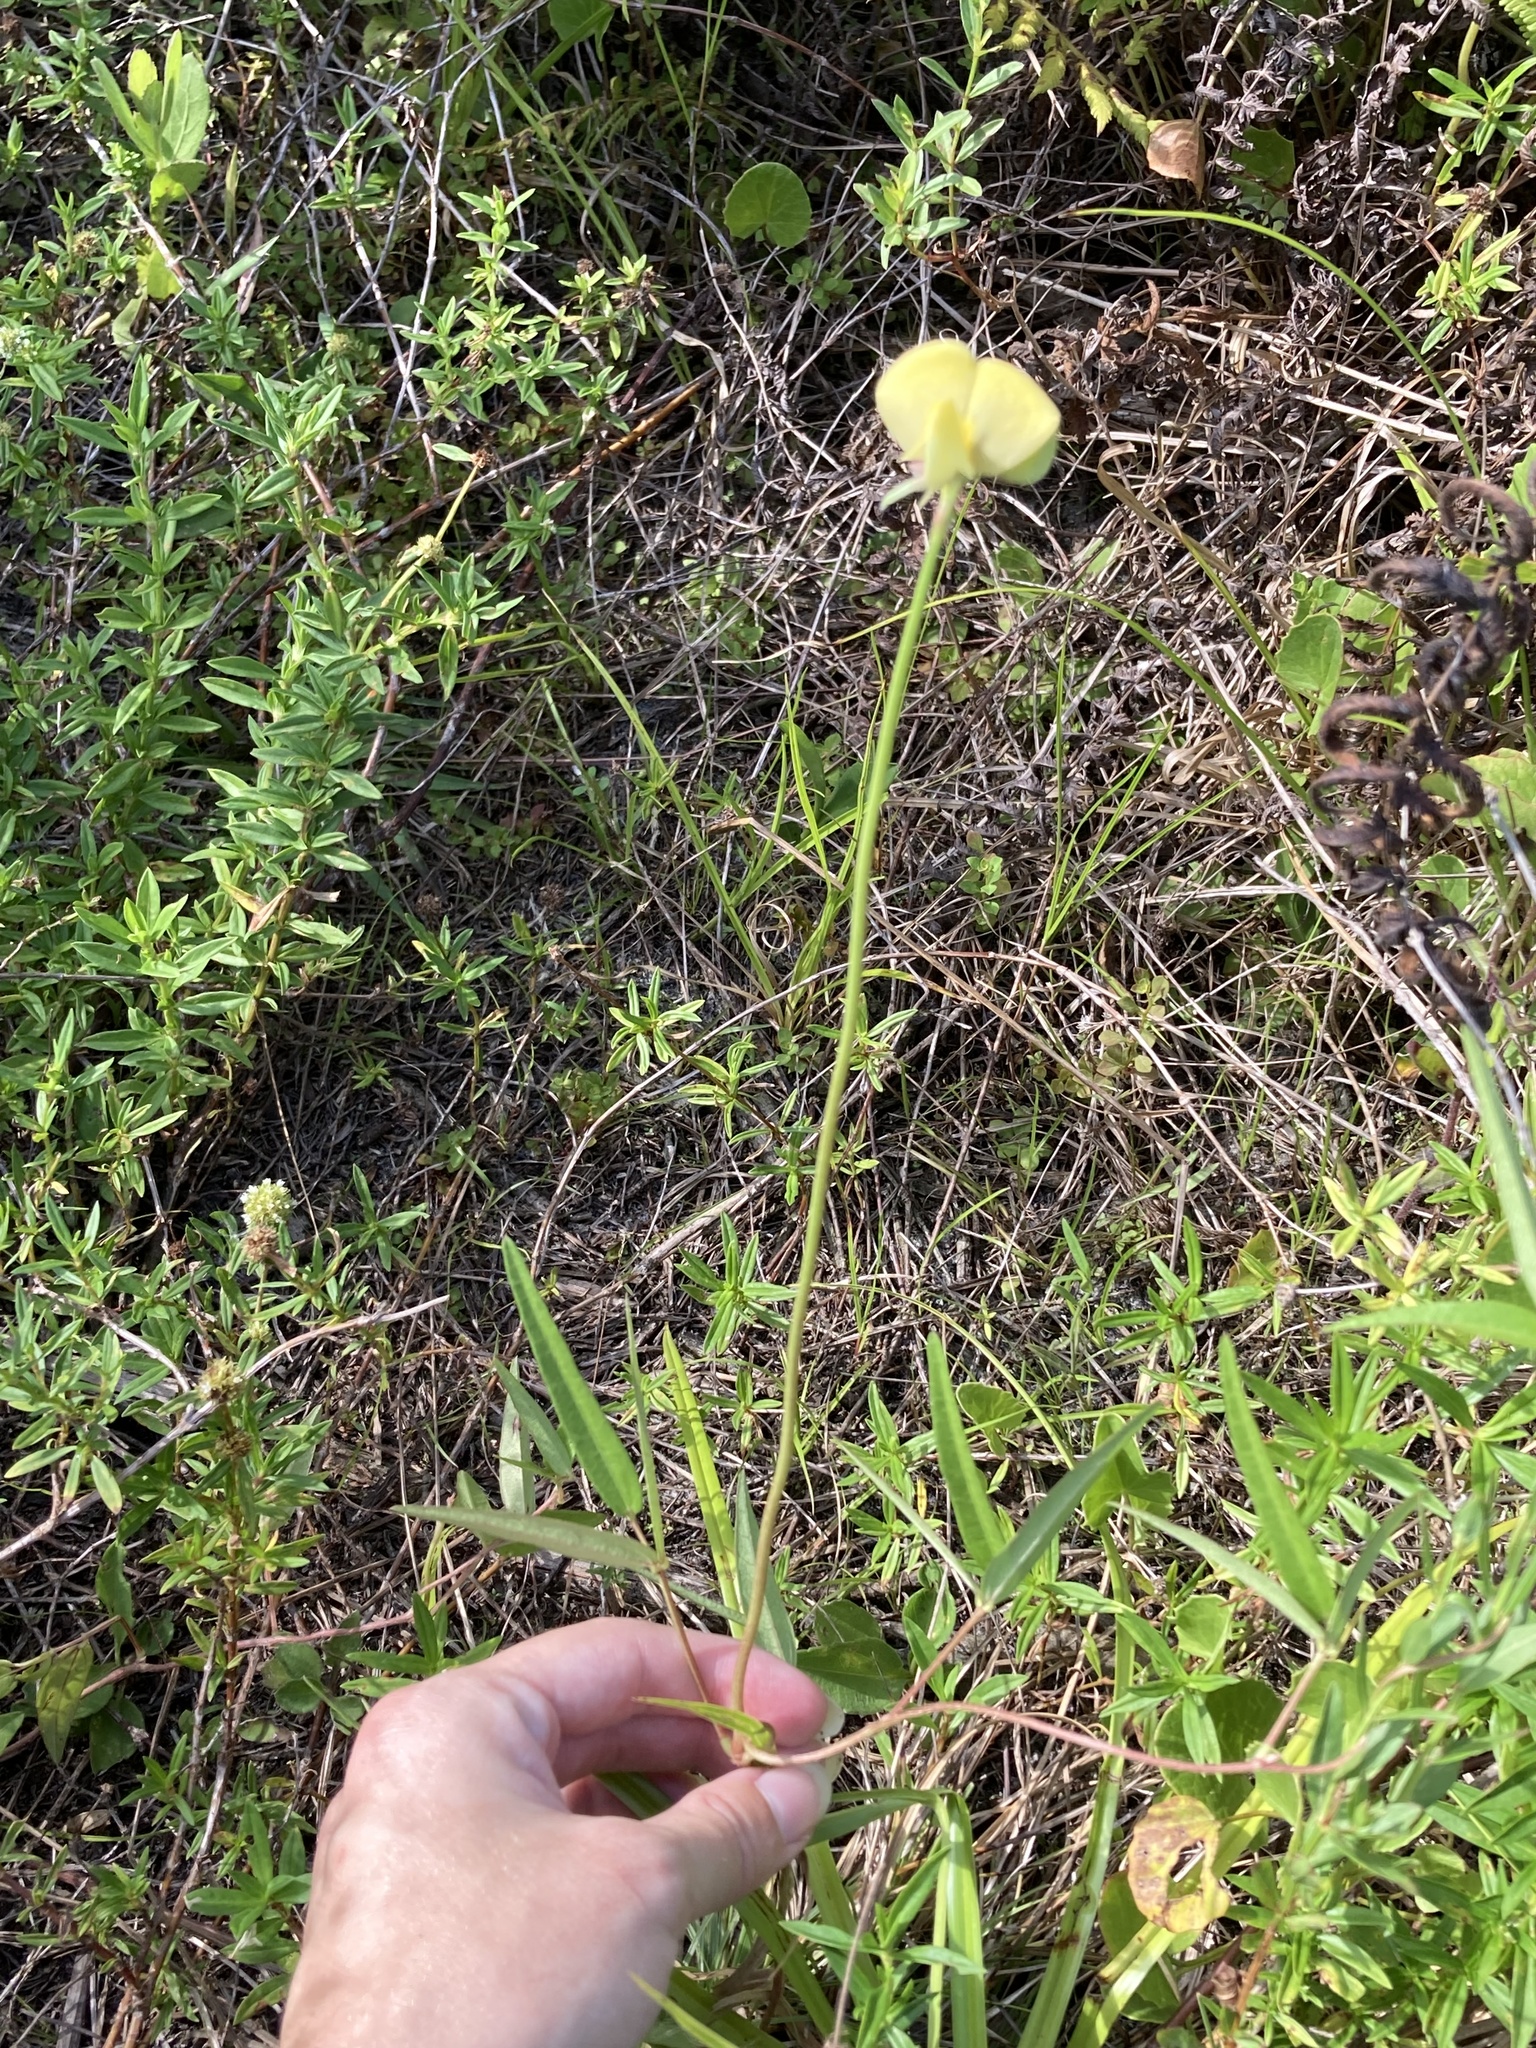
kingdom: Plantae
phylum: Tracheophyta
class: Magnoliopsida
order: Fabales
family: Fabaceae
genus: Vigna
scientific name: Vigna luteola
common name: Hairypod cowpea
